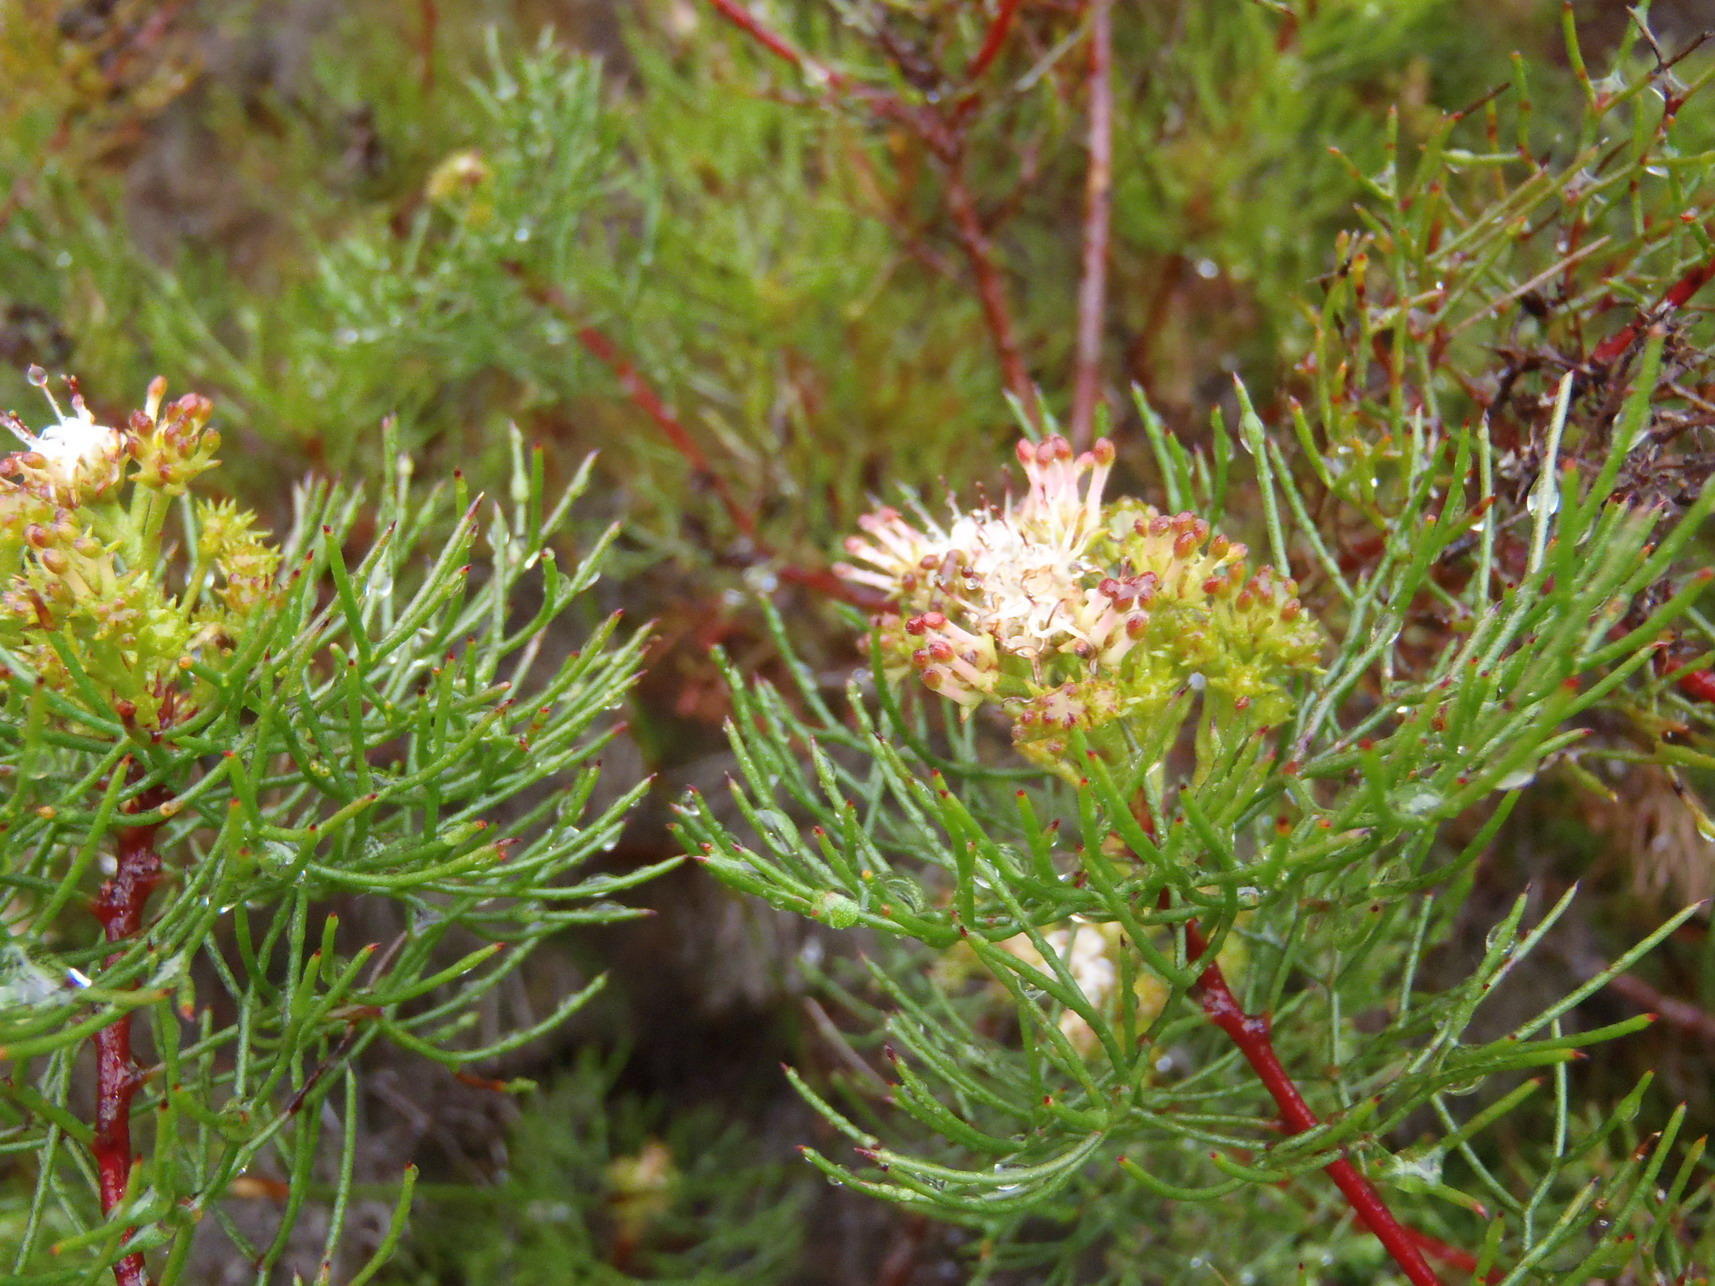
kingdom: Plantae
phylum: Tracheophyta
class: Magnoliopsida
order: Proteales
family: Proteaceae
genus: Serruria
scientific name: Serruria fasciflora
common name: Common pin spiderhead
